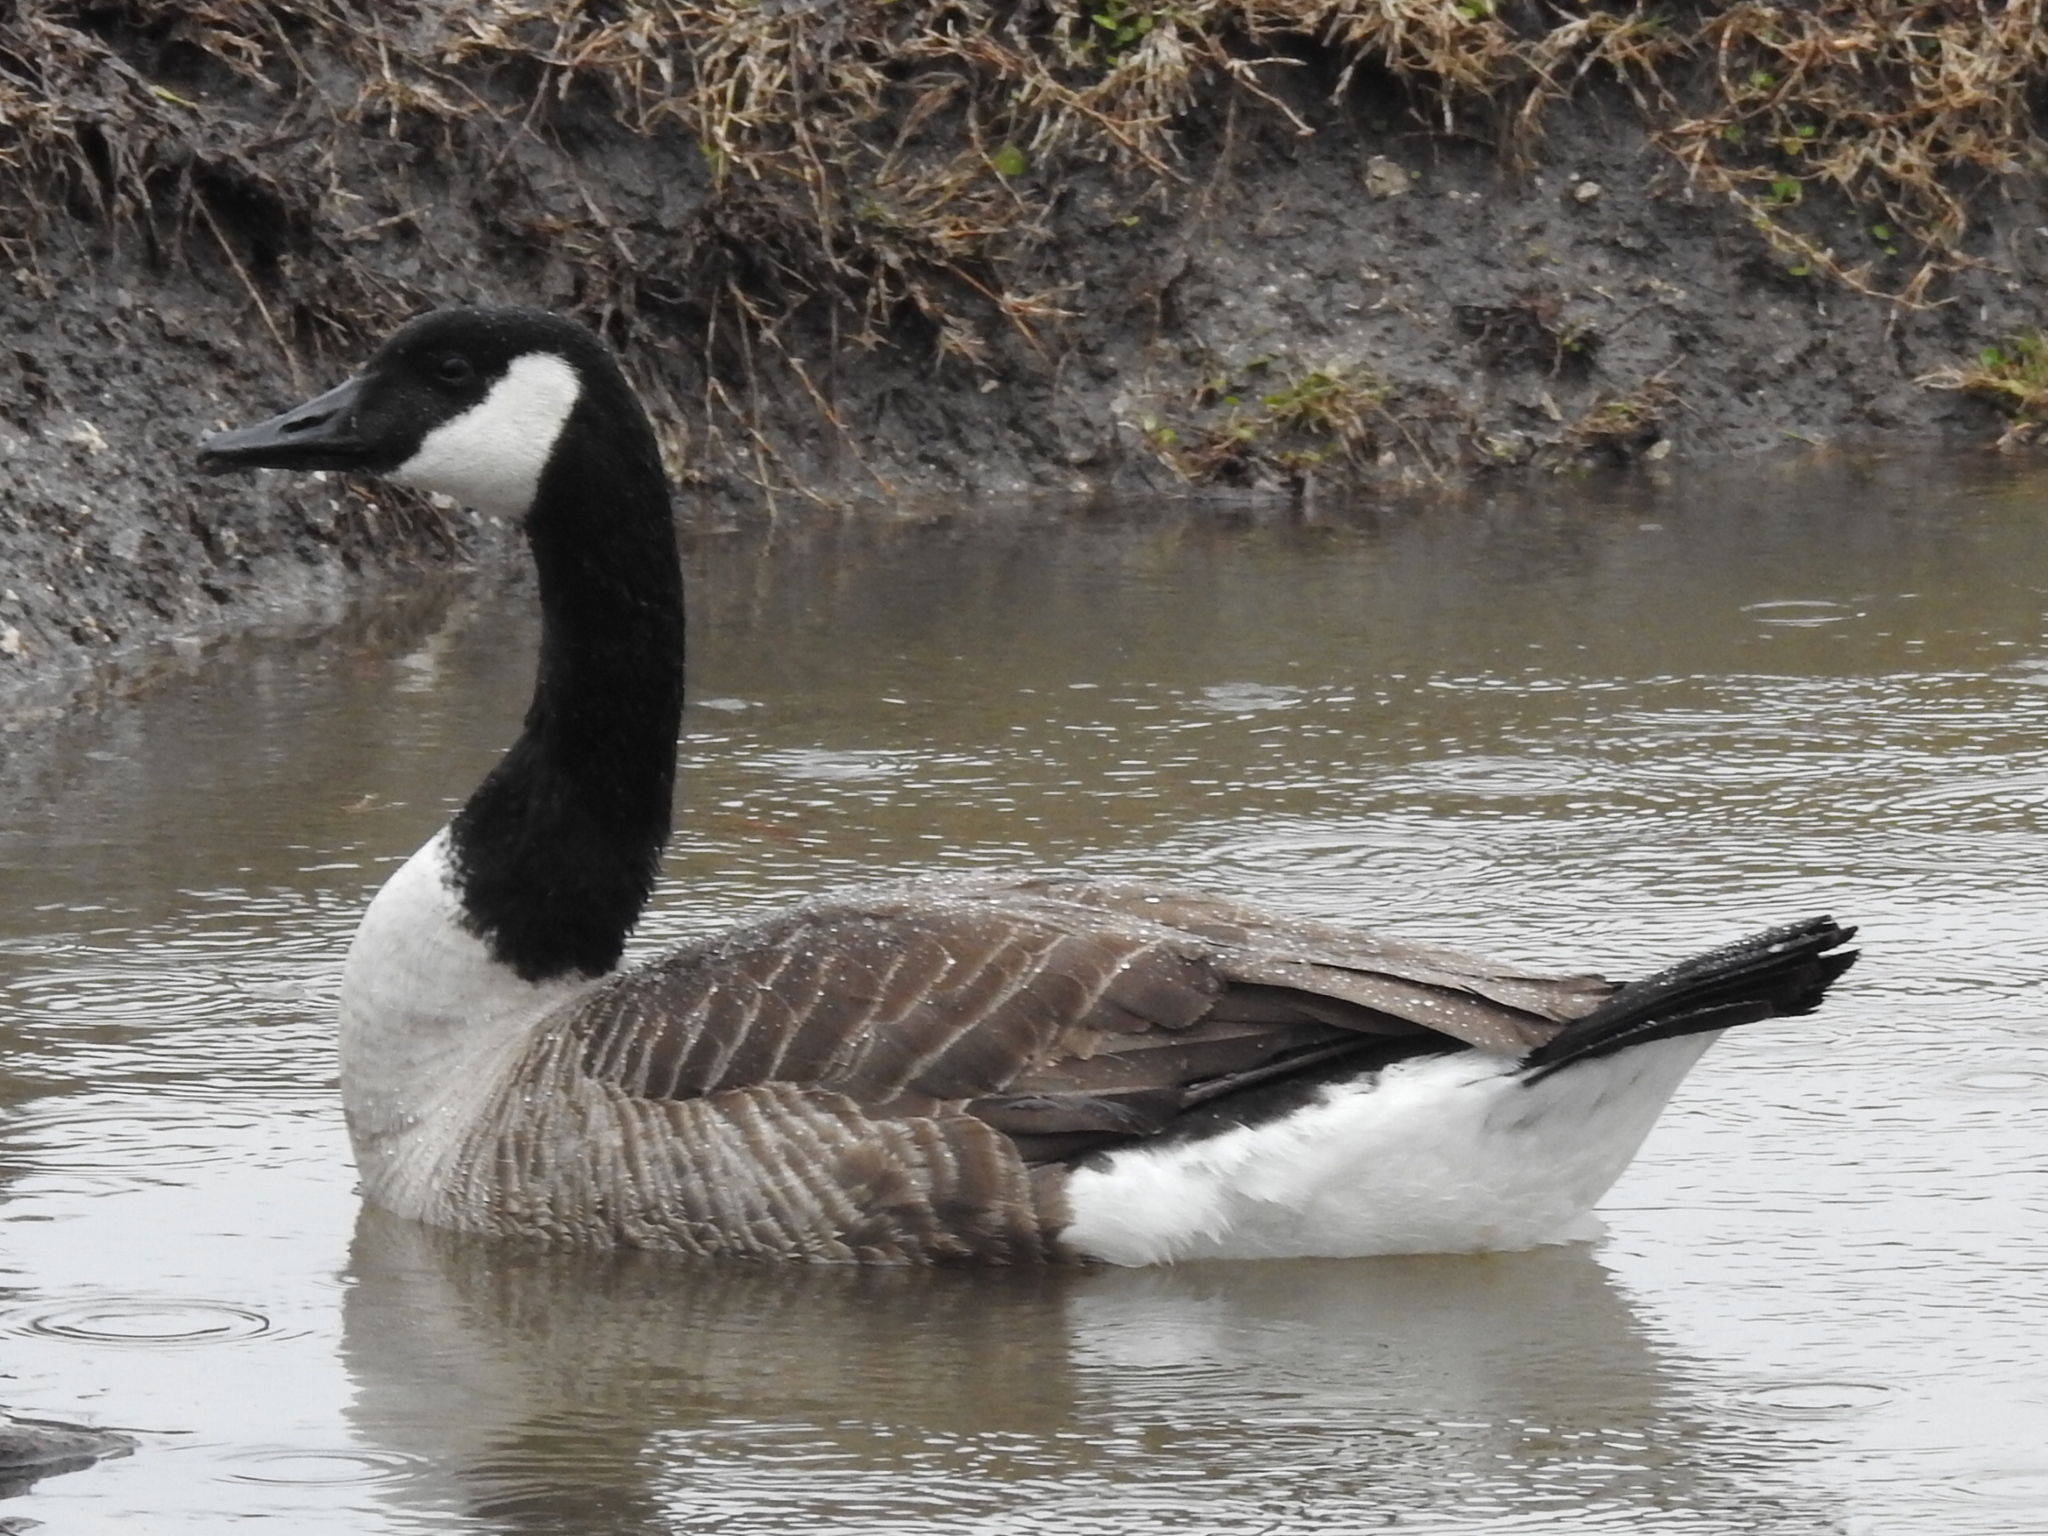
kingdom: Animalia
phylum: Chordata
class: Aves
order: Anseriformes
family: Anatidae
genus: Branta
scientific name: Branta canadensis
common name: Canada goose
